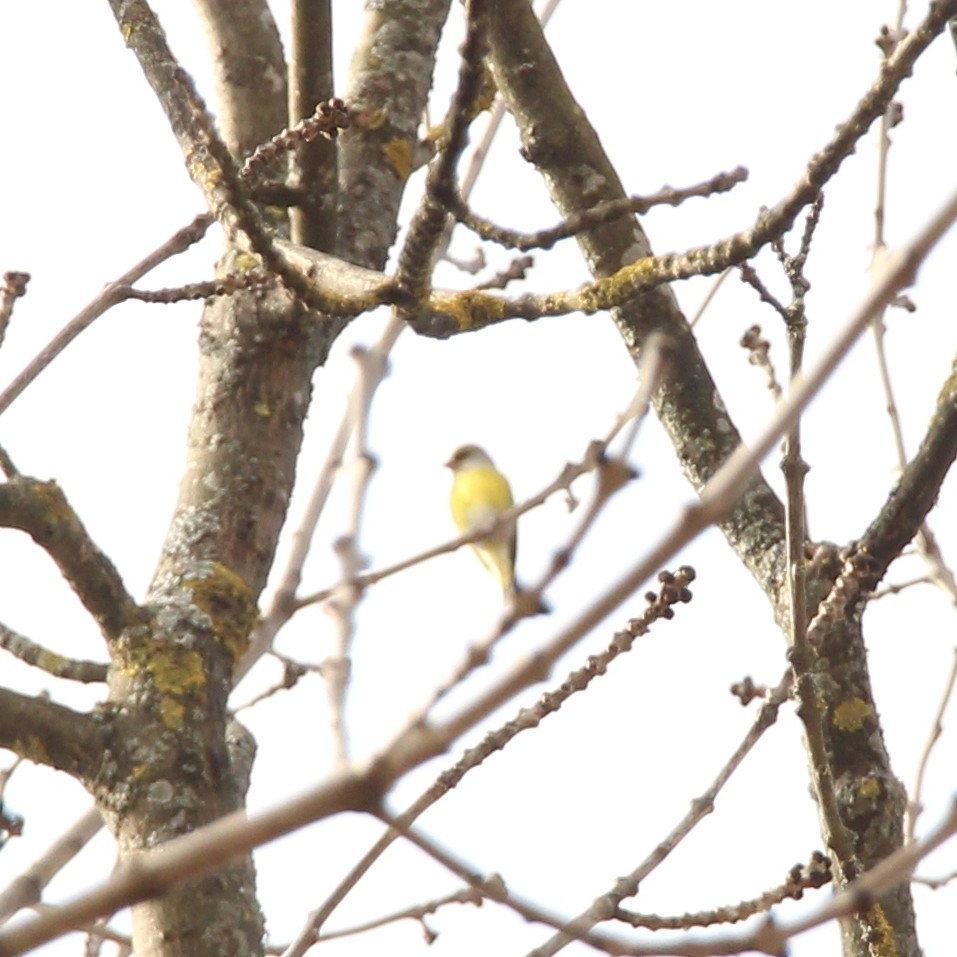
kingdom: Plantae
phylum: Tracheophyta
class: Liliopsida
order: Poales
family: Poaceae
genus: Chloris
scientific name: Chloris chloris
